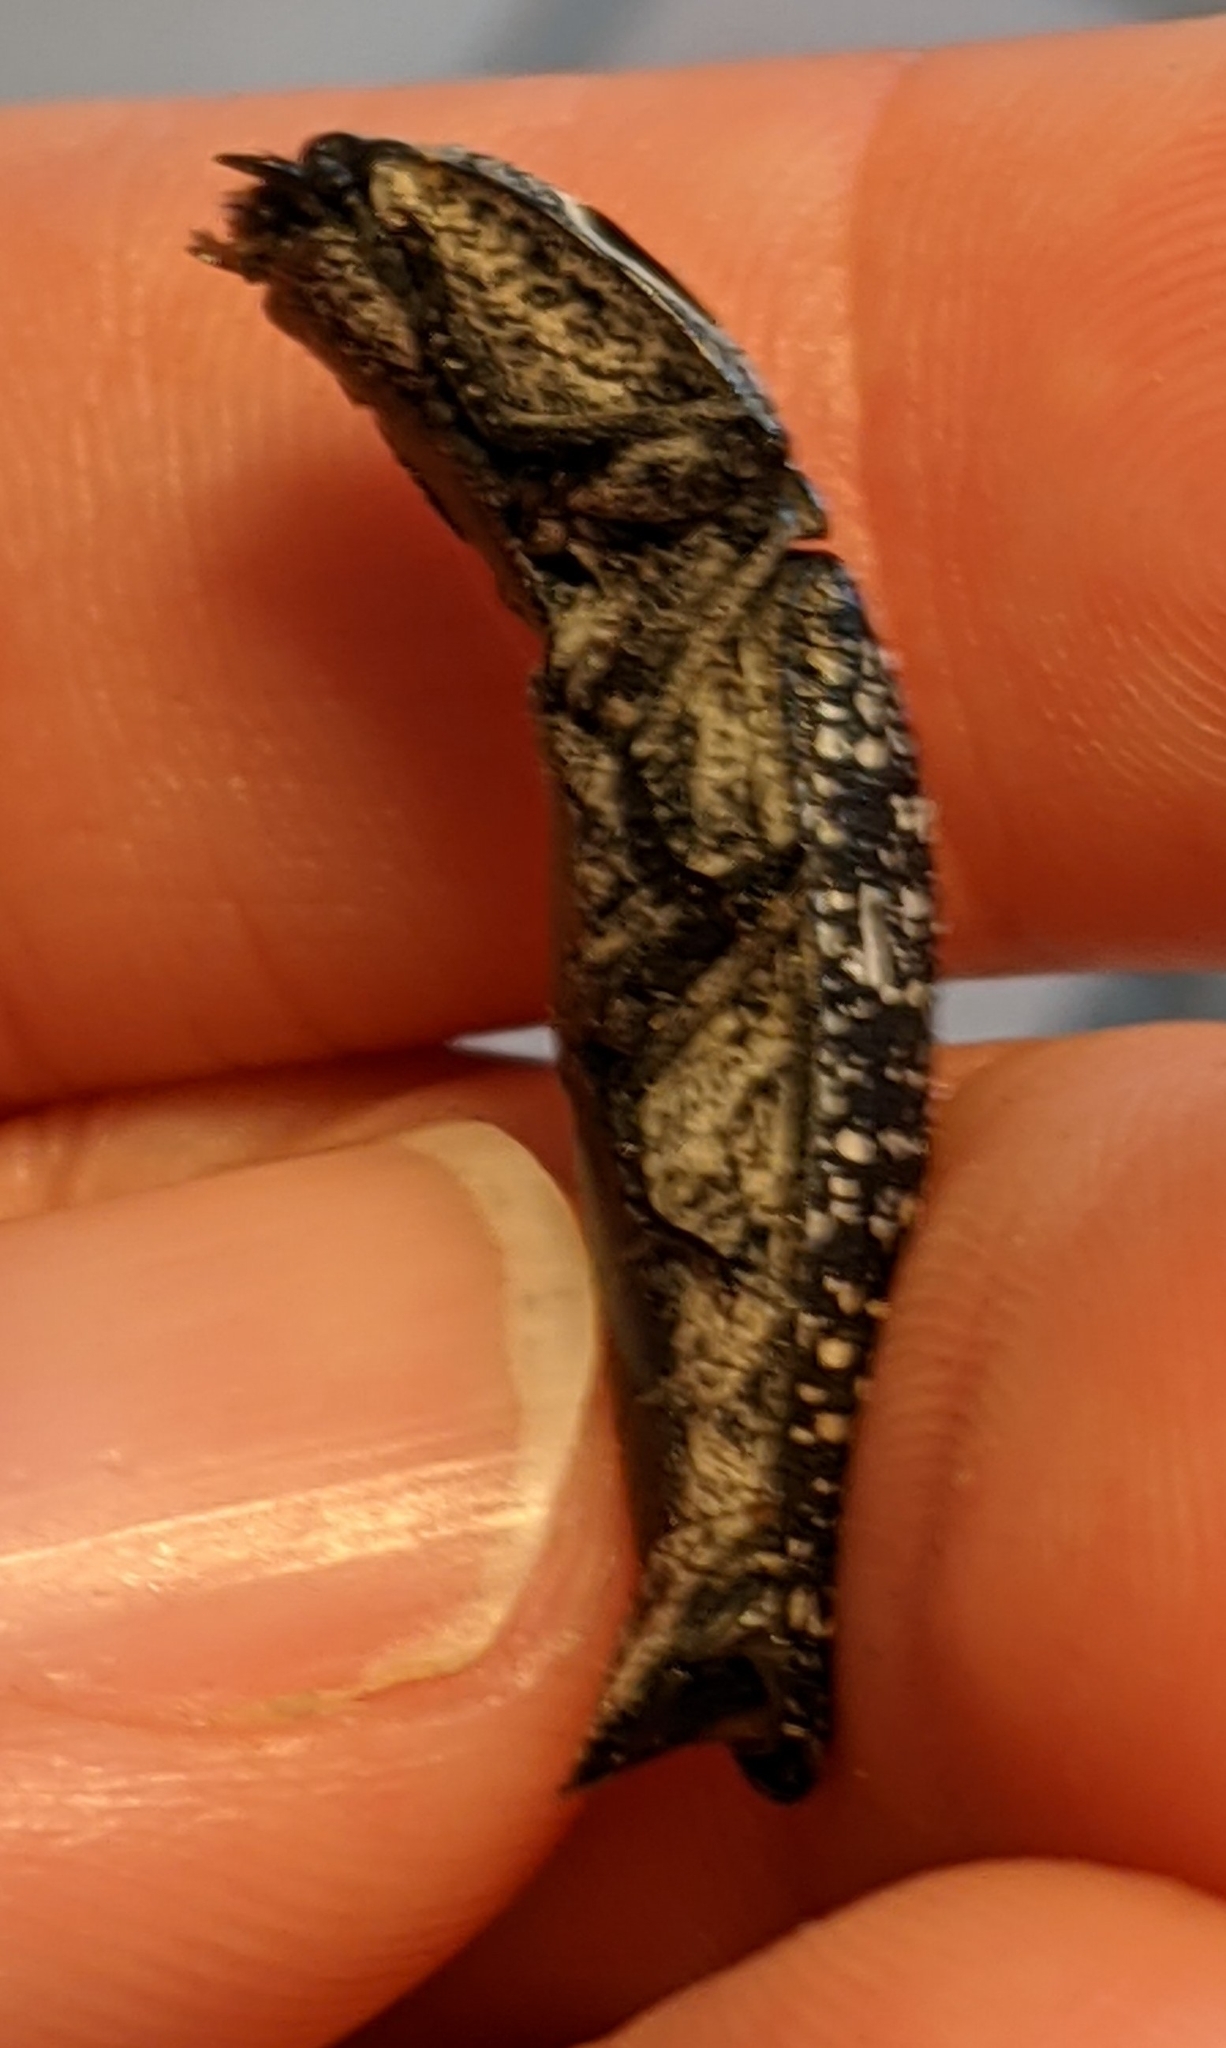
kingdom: Animalia
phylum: Arthropoda
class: Insecta
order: Coleoptera
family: Elateridae
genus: Alaus
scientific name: Alaus oculatus
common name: Eastern eyed click beetle
